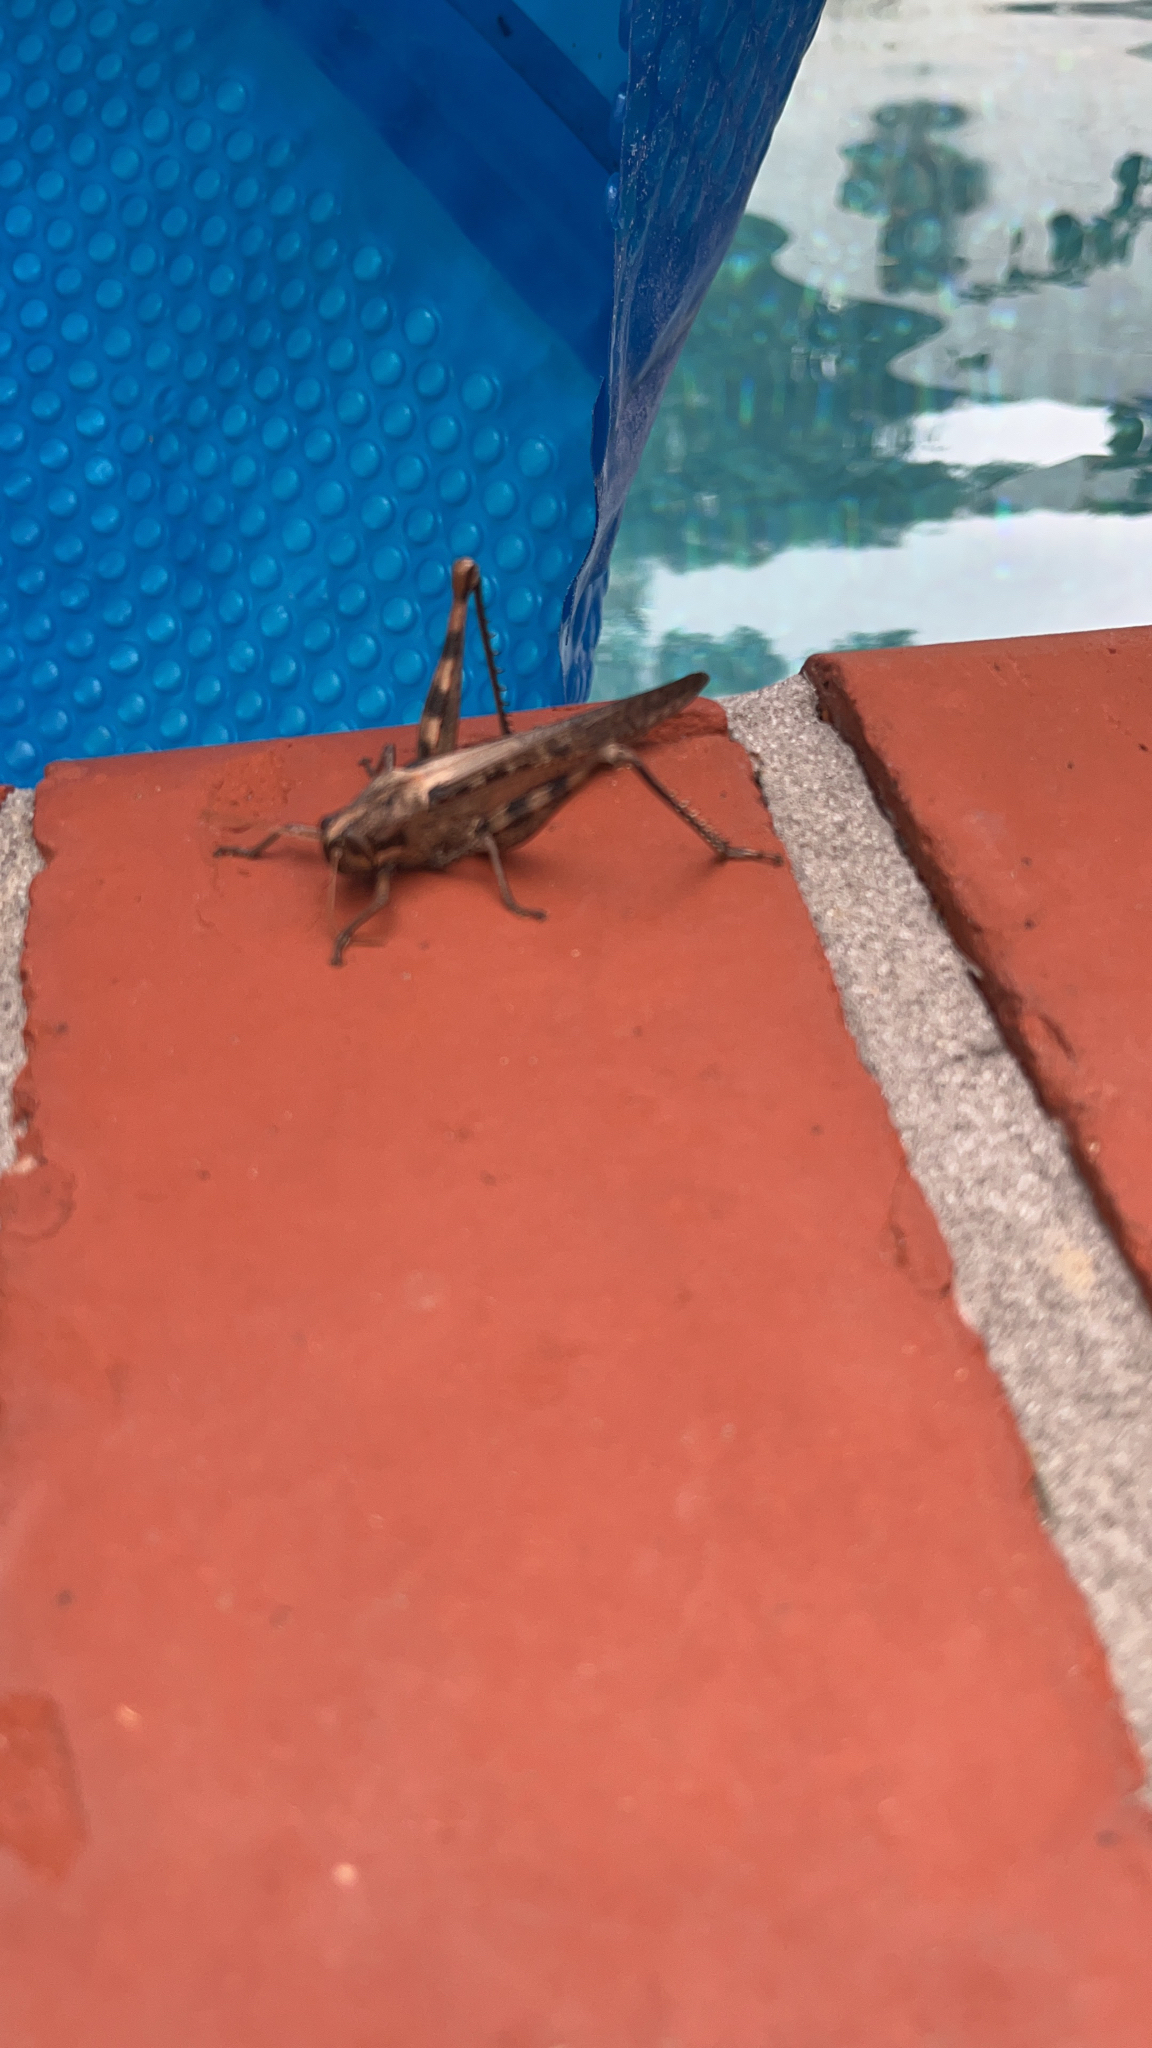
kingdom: Animalia
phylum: Arthropoda
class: Insecta
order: Orthoptera
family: Acrididae
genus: Schistocerca
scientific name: Schistocerca nitens
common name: Vagrant grasshopper
